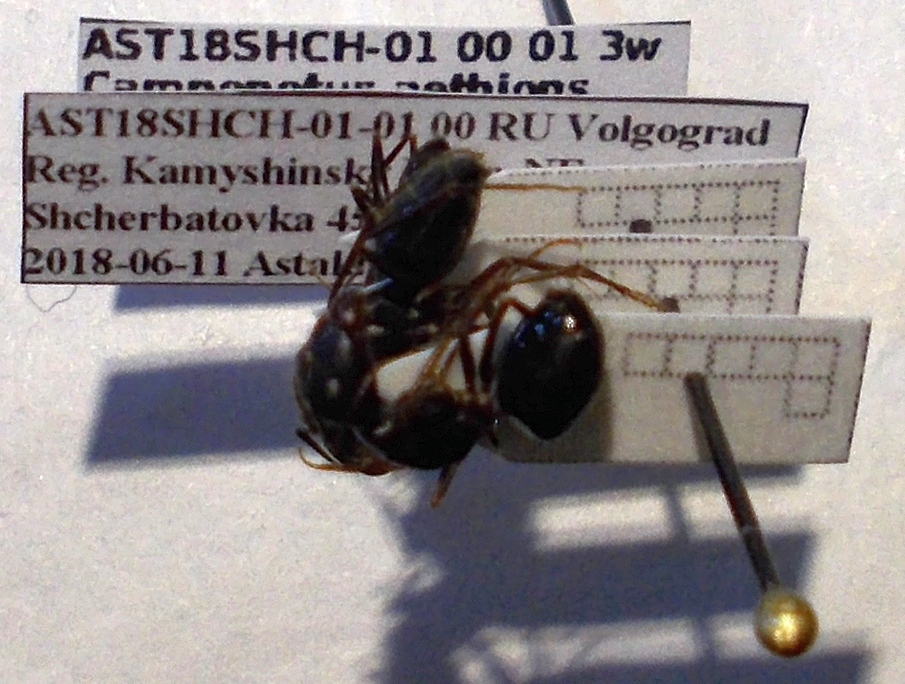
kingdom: Animalia
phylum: Arthropoda
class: Insecta
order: Hymenoptera
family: Formicidae
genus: Camponotus
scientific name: Camponotus aethiops
